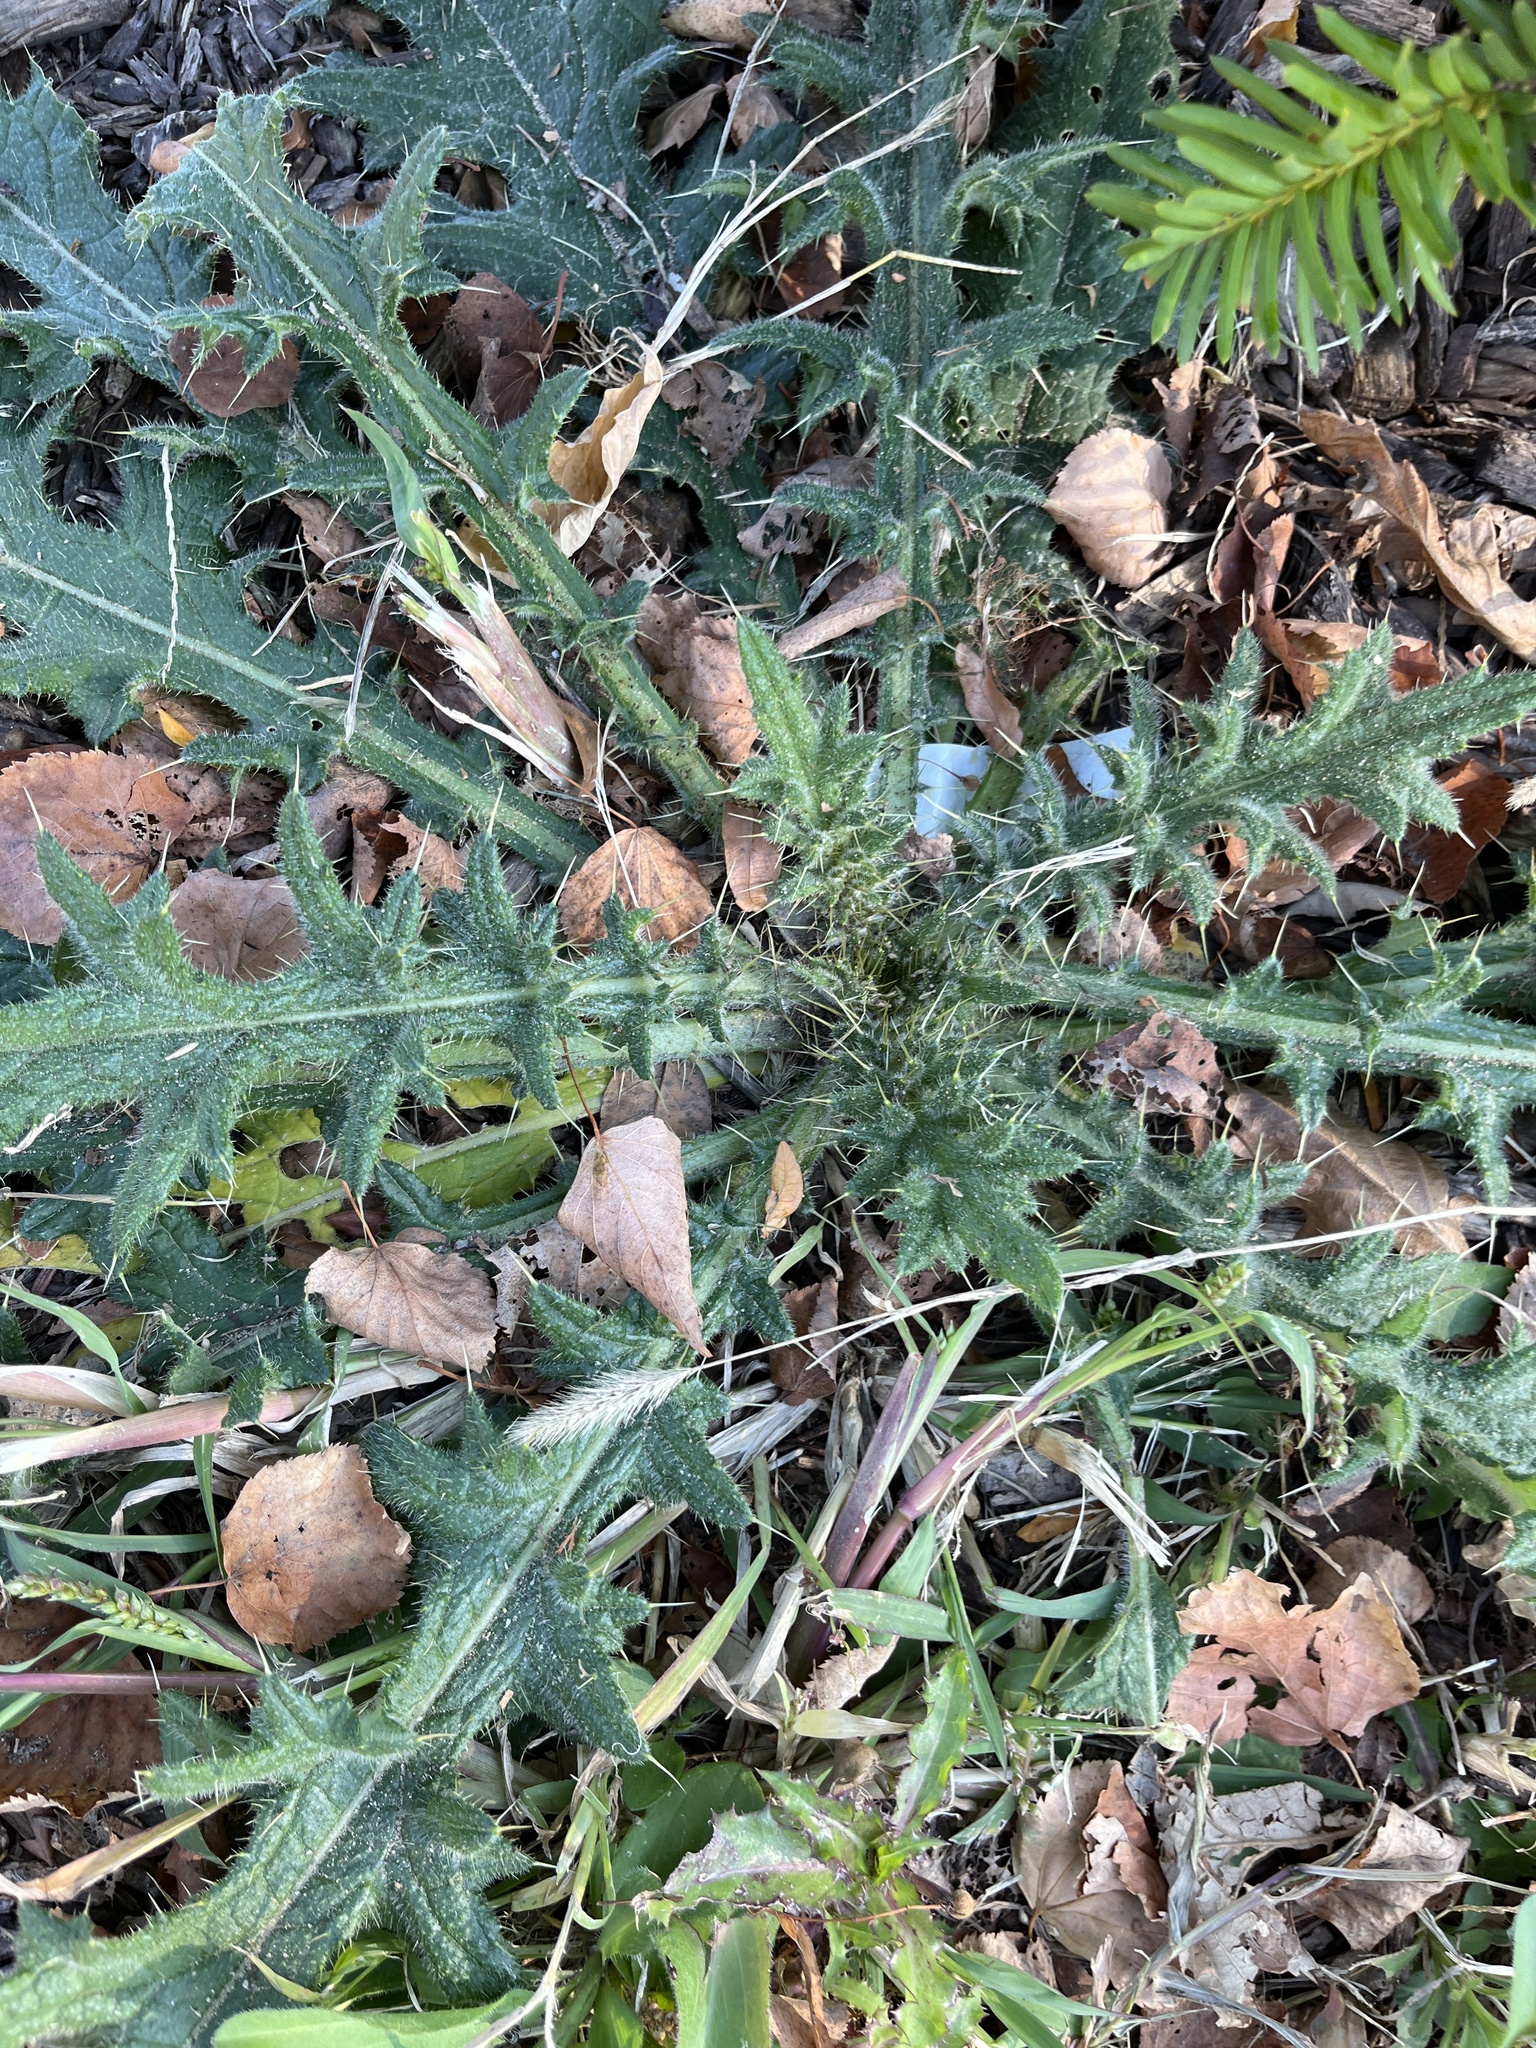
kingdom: Plantae
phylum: Tracheophyta
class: Magnoliopsida
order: Asterales
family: Asteraceae
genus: Cirsium
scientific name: Cirsium vulgare
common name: Bull thistle
